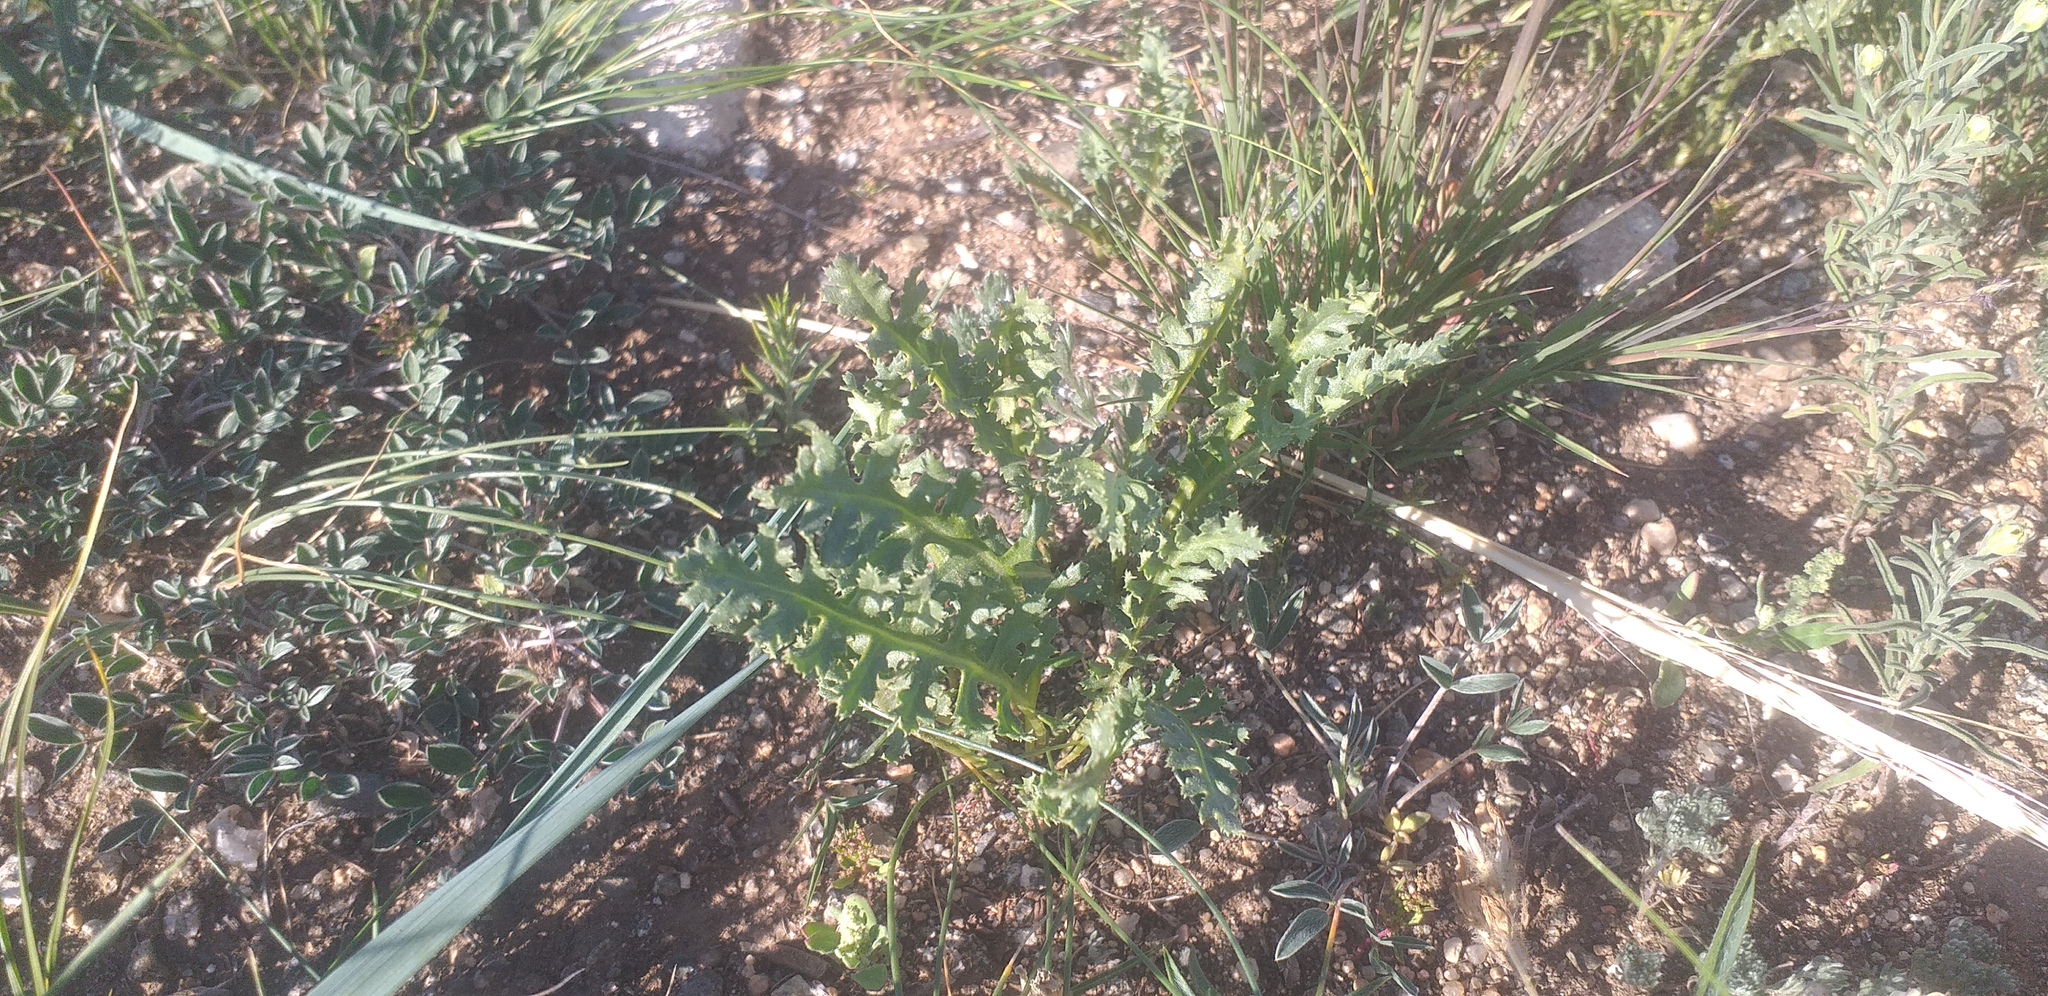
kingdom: Plantae
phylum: Tracheophyta
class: Magnoliopsida
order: Lamiales
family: Orobanchaceae
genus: Pedicularis
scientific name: Pedicularis flava
